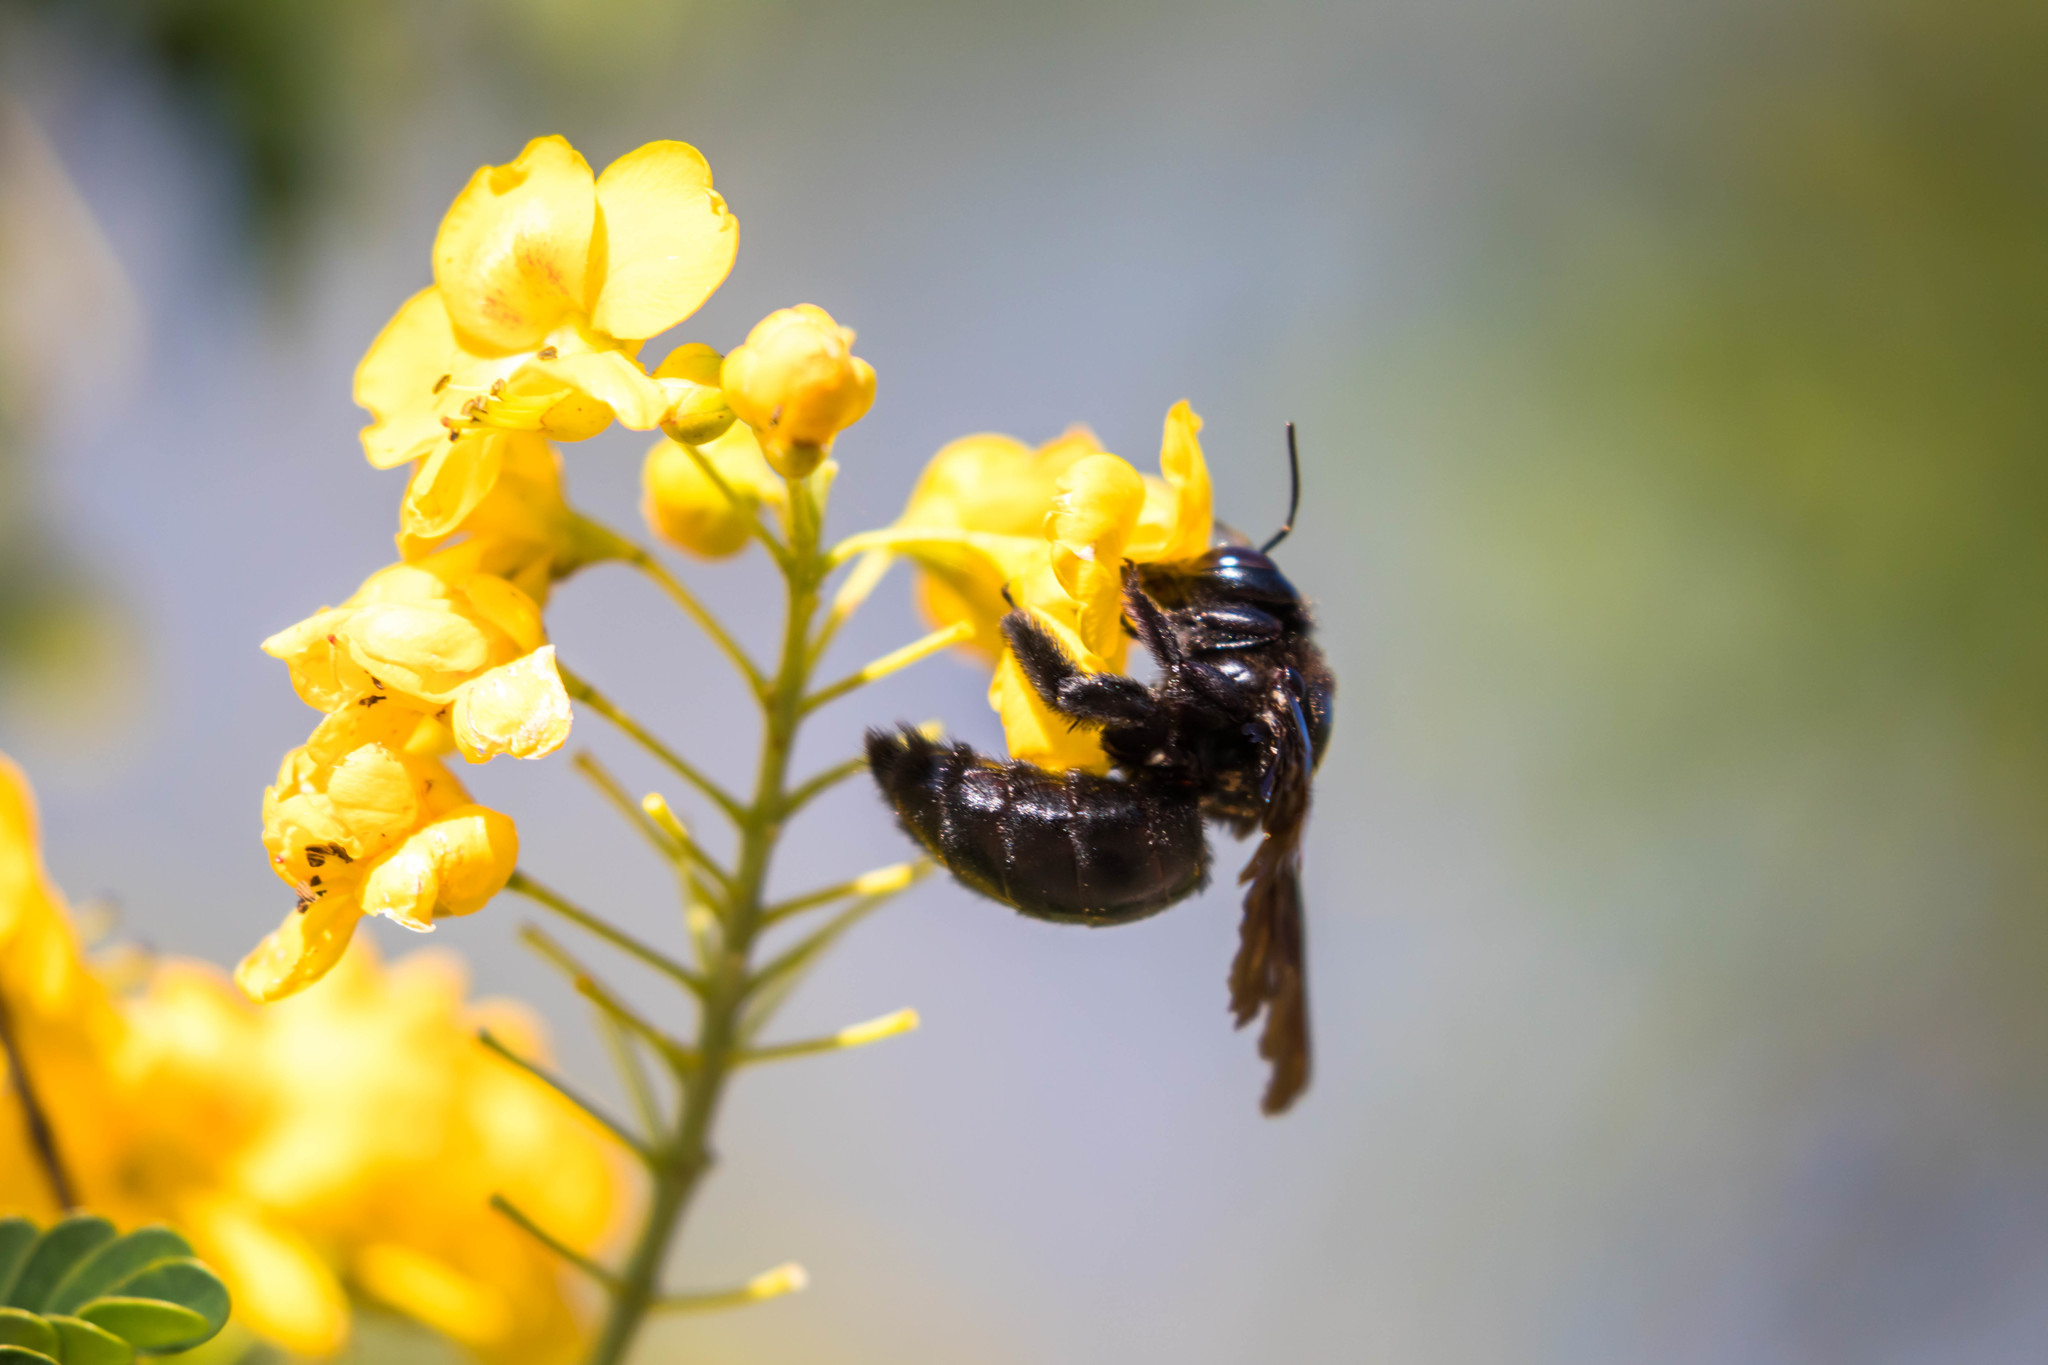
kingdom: Animalia
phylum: Arthropoda
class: Insecta
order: Hymenoptera
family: Apidae
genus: Xylocopa
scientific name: Xylocopa griswoldi
